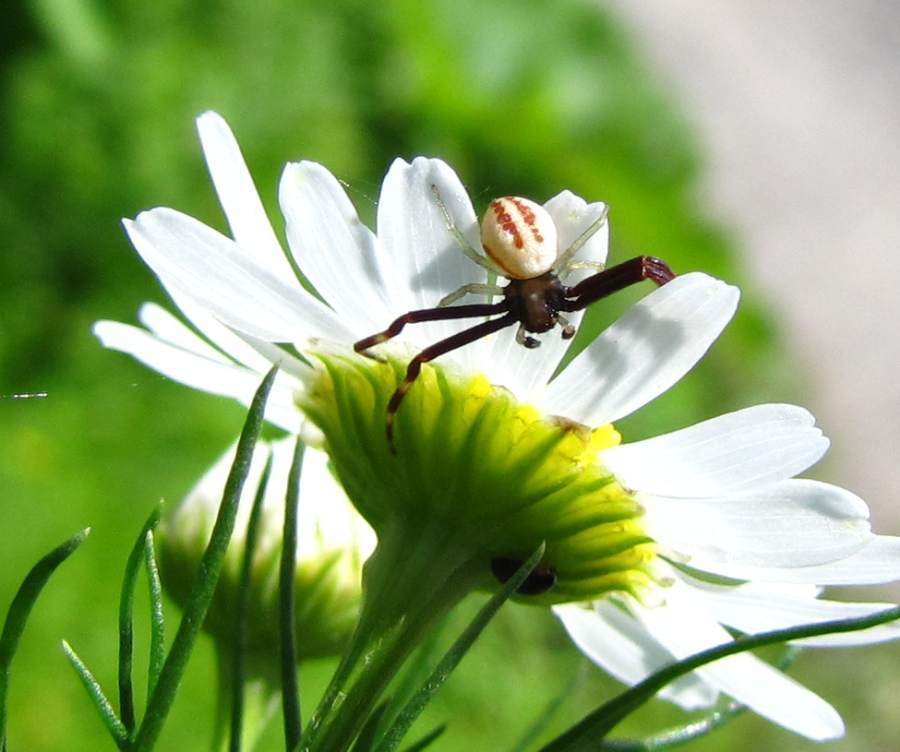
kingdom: Animalia
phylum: Arthropoda
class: Arachnida
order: Araneae
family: Thomisidae
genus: Misumena
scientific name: Misumena vatia
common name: Goldenrod crab spider
